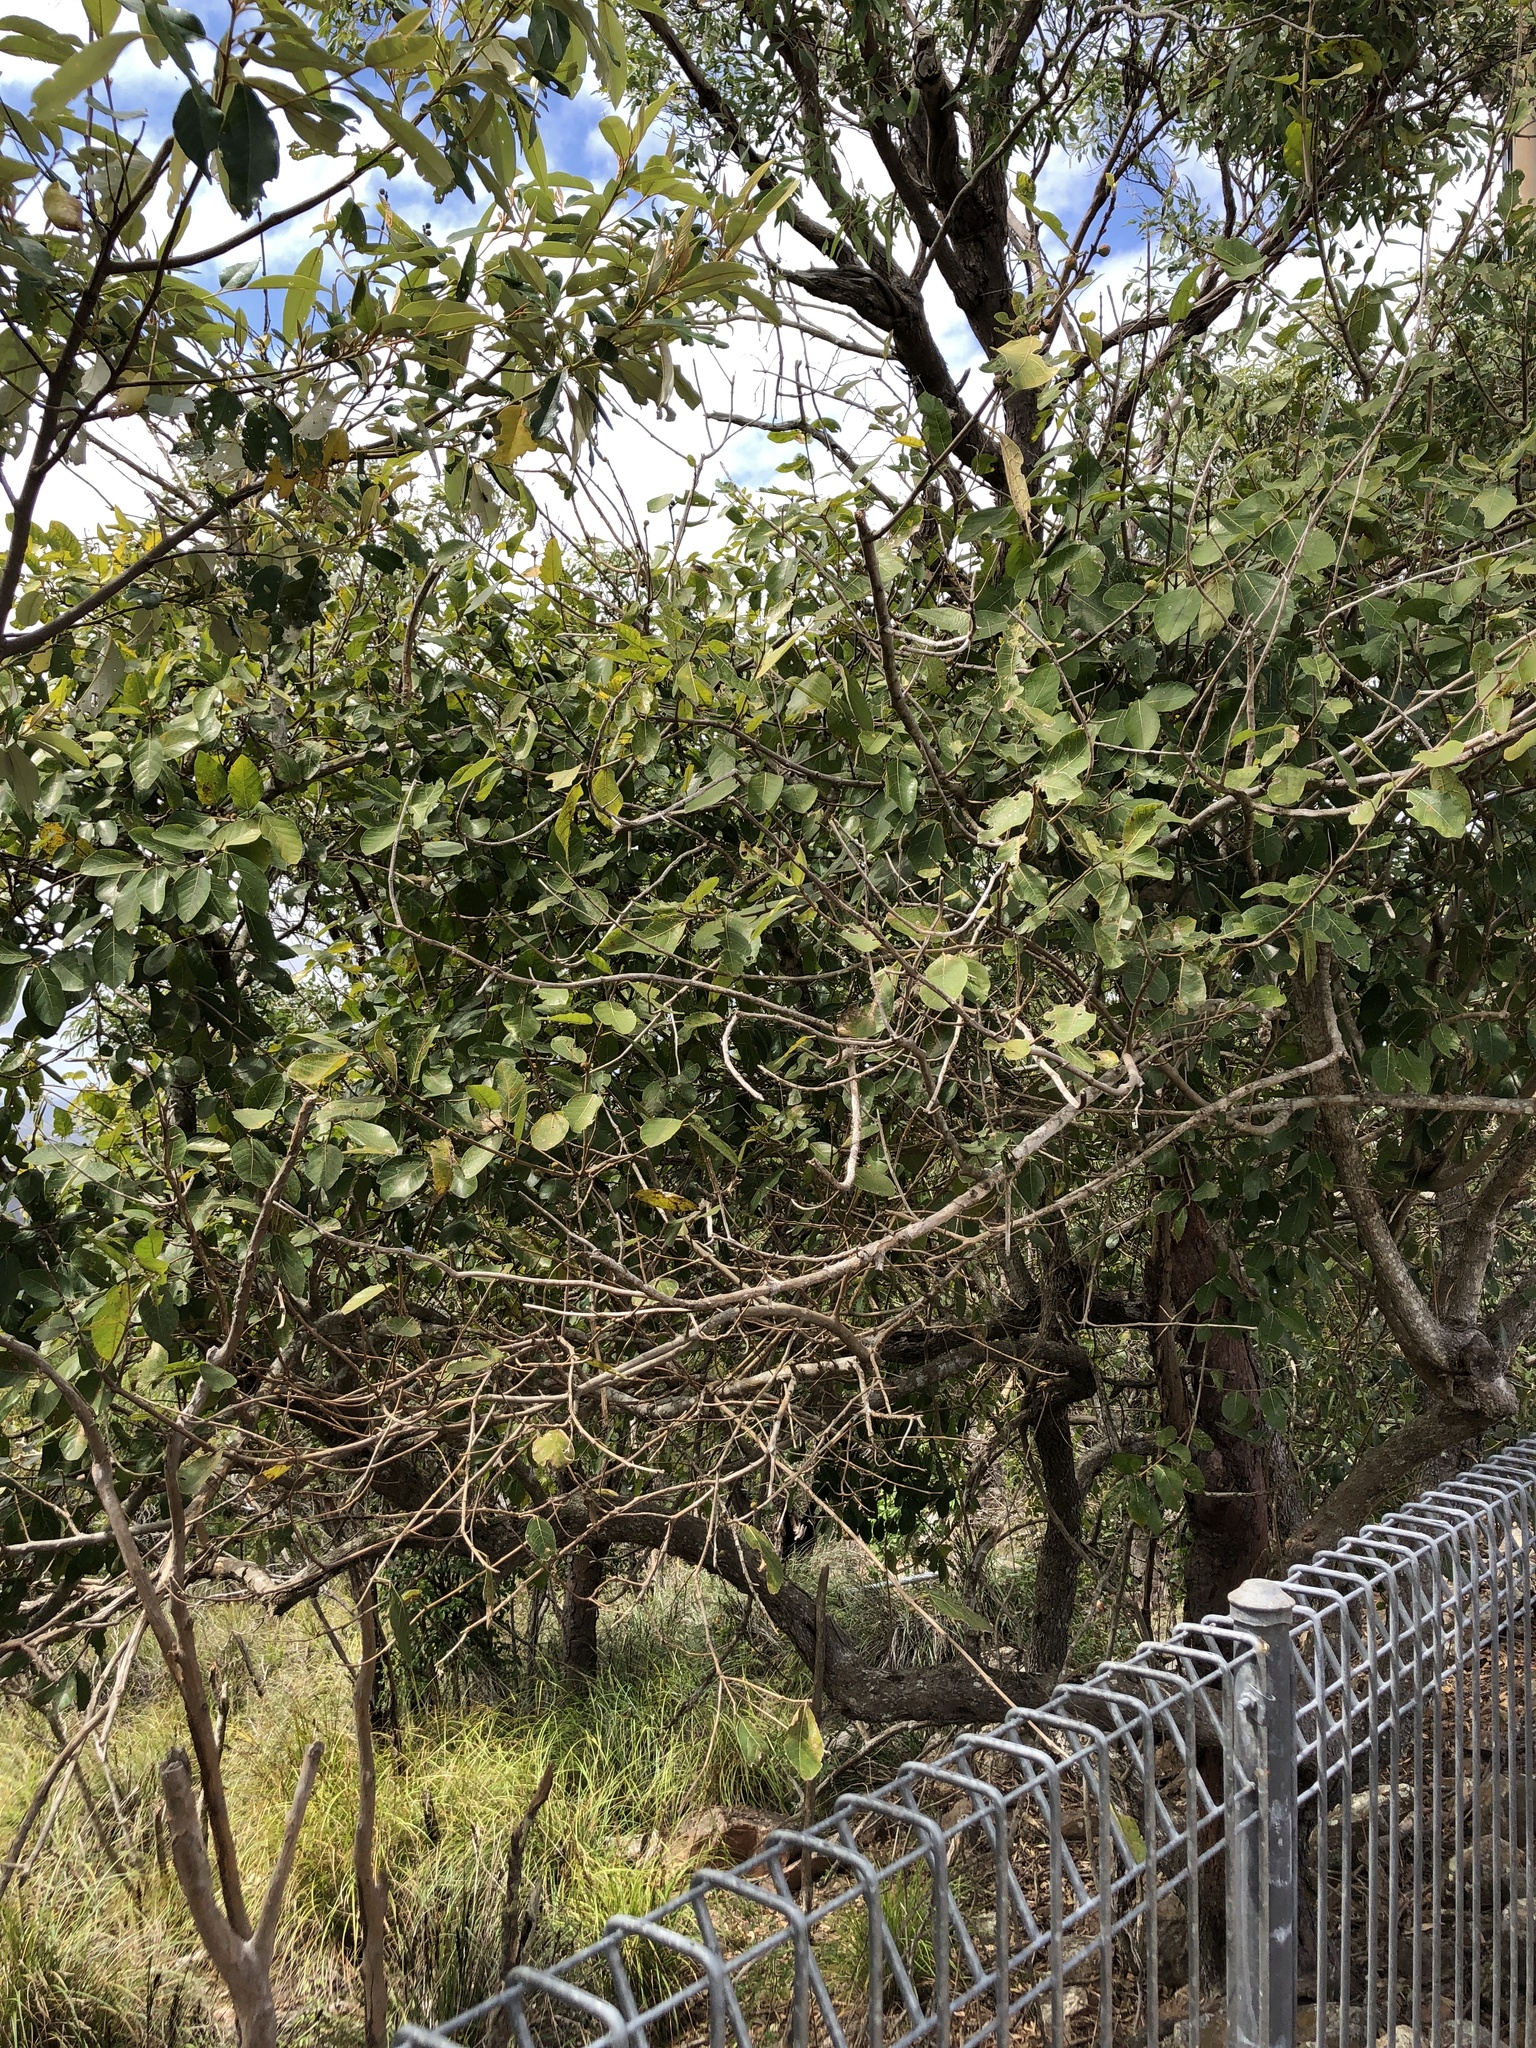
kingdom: Plantae
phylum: Tracheophyta
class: Magnoliopsida
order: Rosales
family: Moraceae
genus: Ficus
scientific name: Ficus opposita
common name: Figwood
